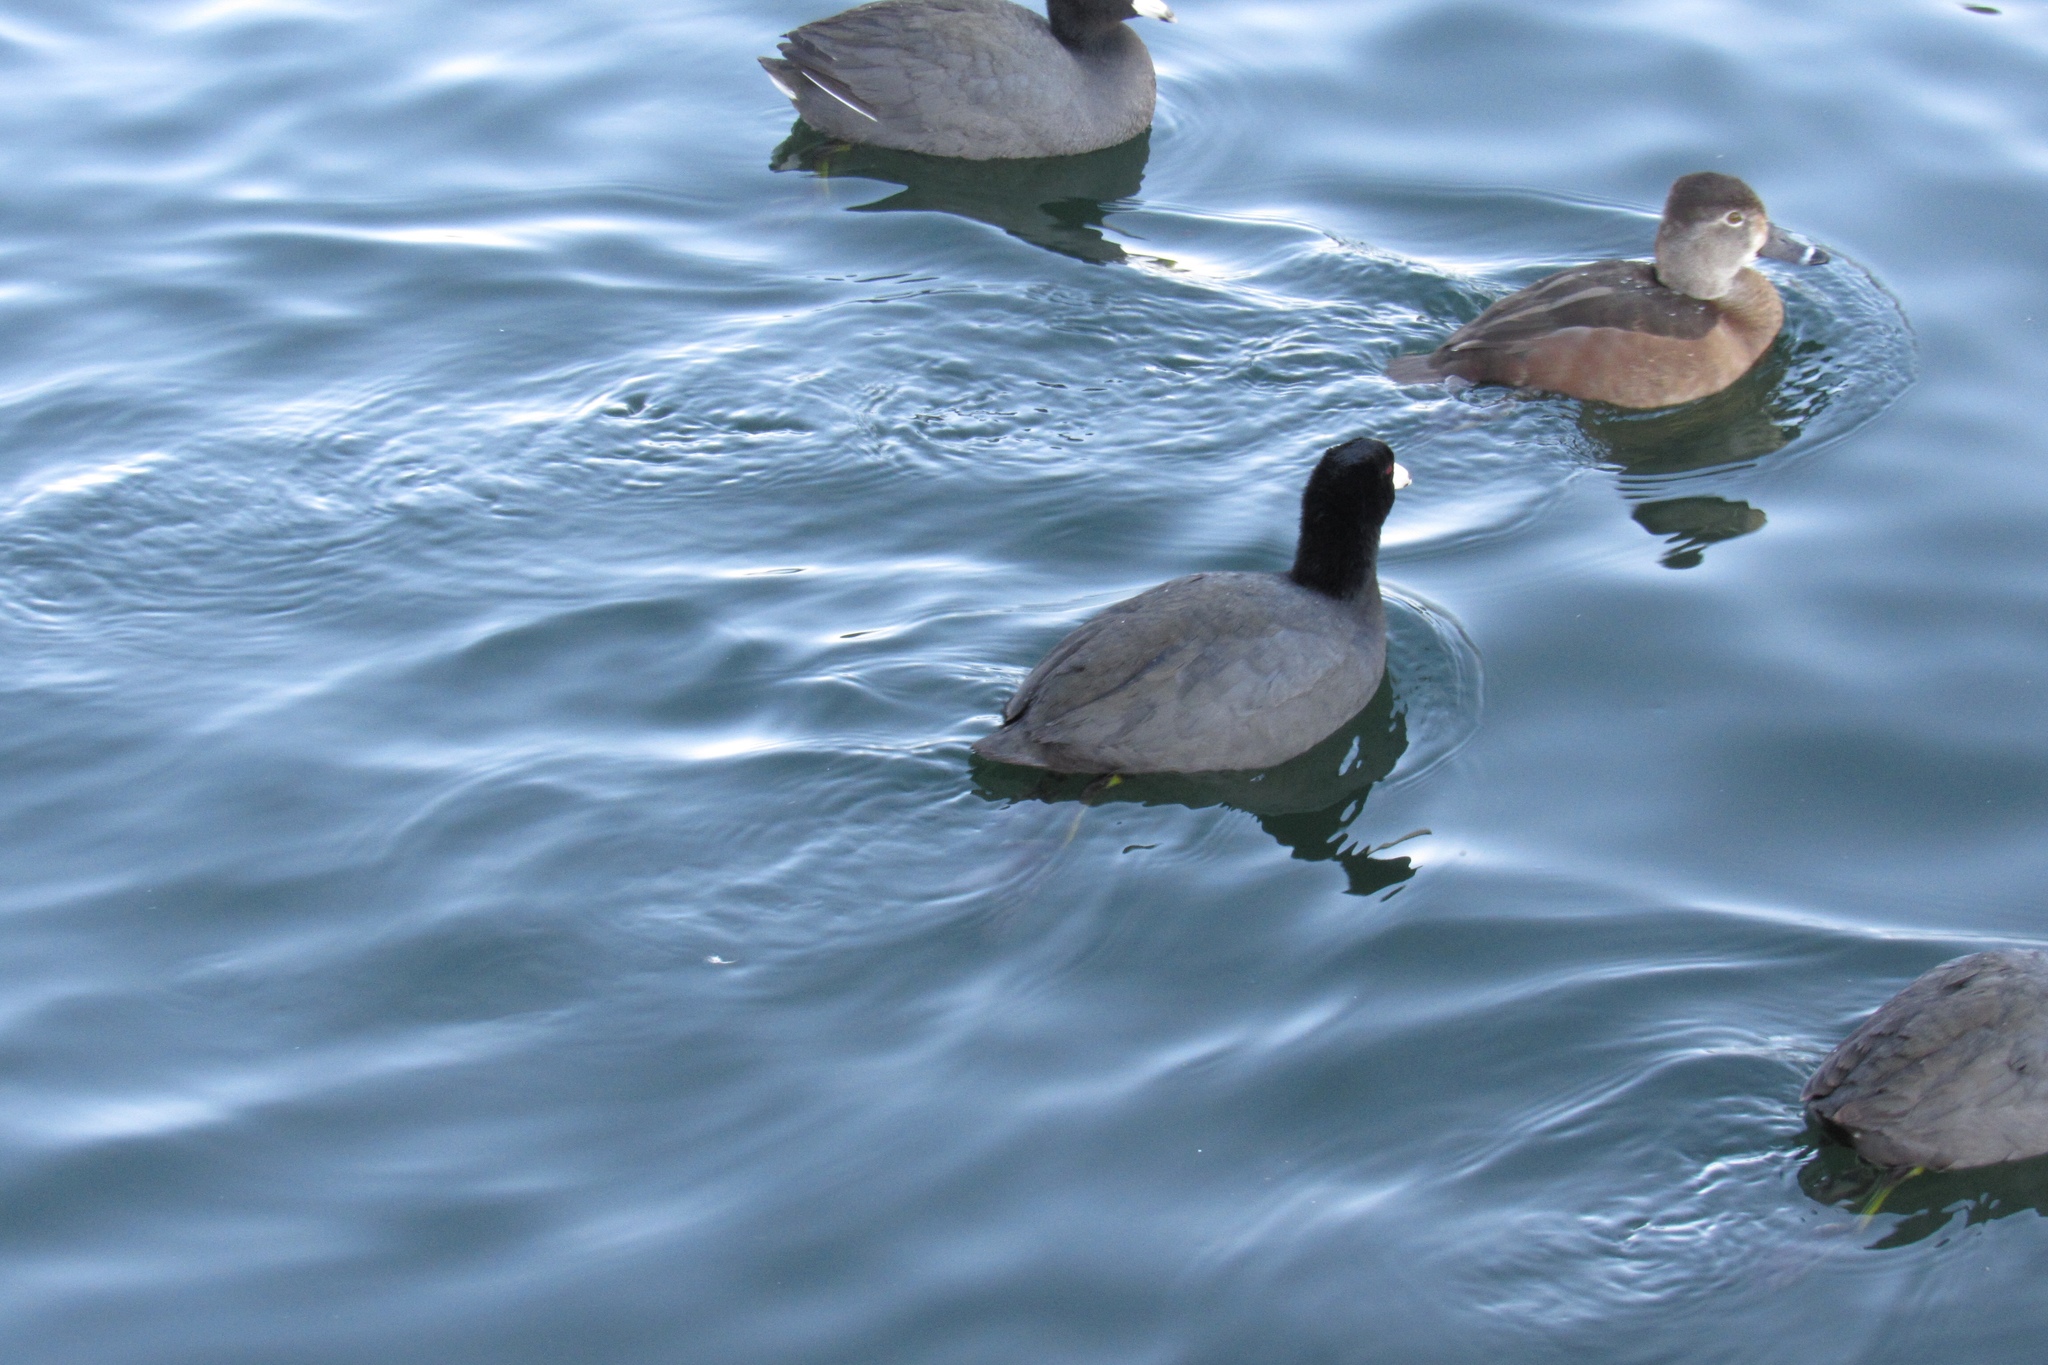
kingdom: Animalia
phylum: Chordata
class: Aves
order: Gruiformes
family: Rallidae
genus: Fulica
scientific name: Fulica americana
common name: American coot
